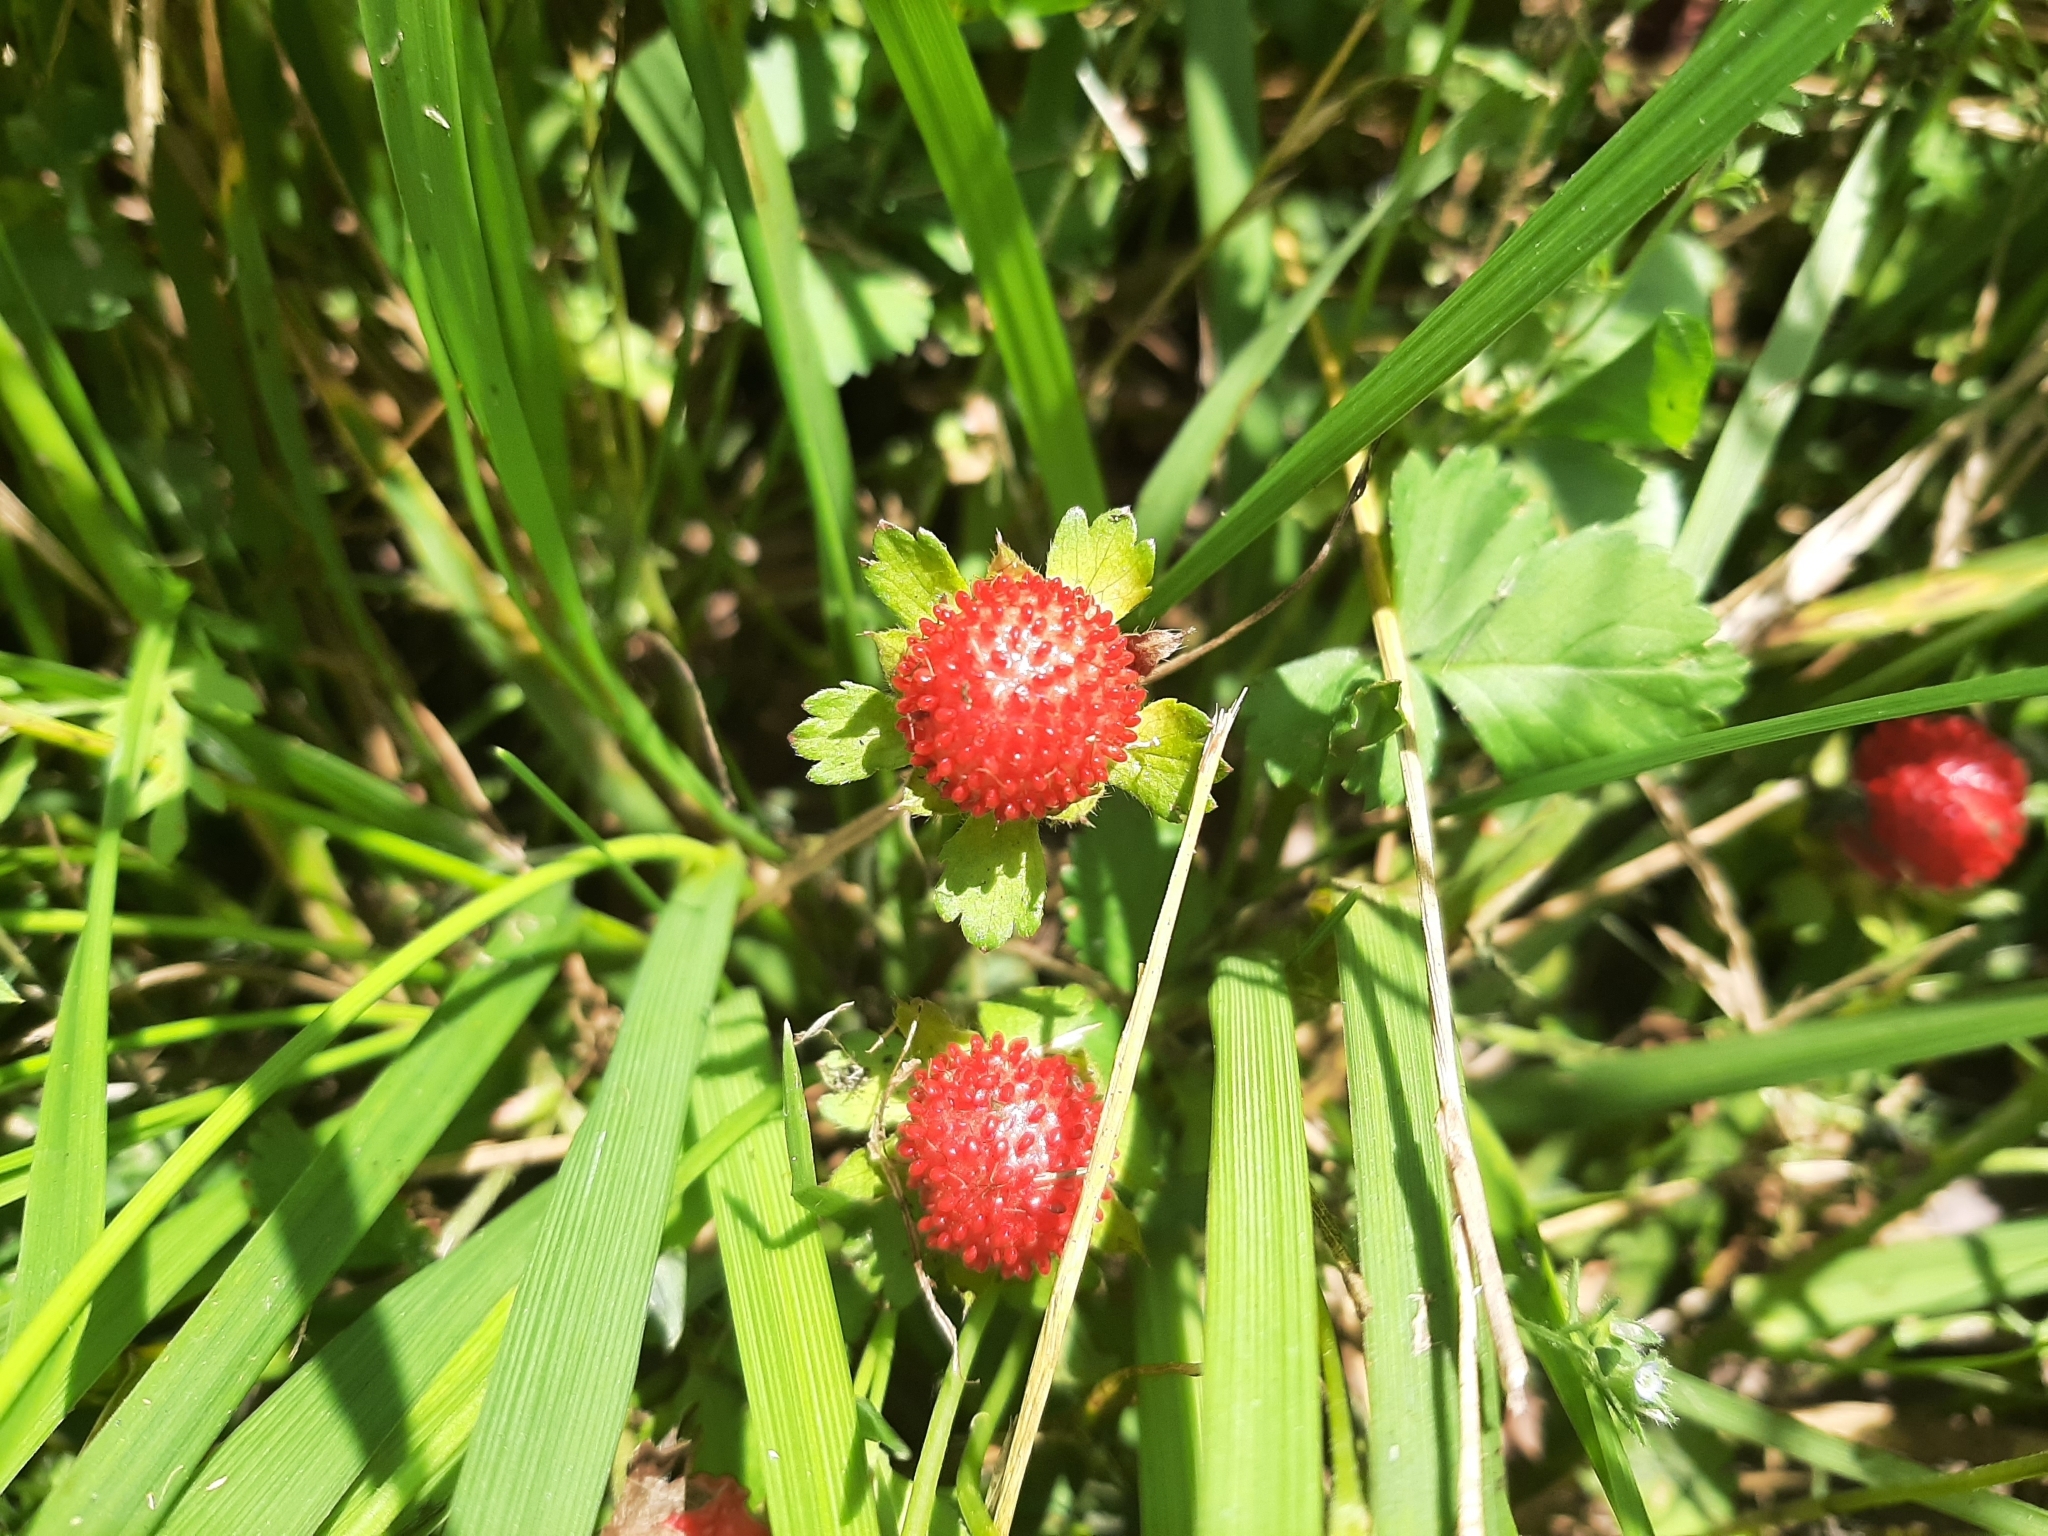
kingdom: Plantae
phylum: Tracheophyta
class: Magnoliopsida
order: Rosales
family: Rosaceae
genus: Potentilla
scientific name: Potentilla indica
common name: Yellow-flowered strawberry
